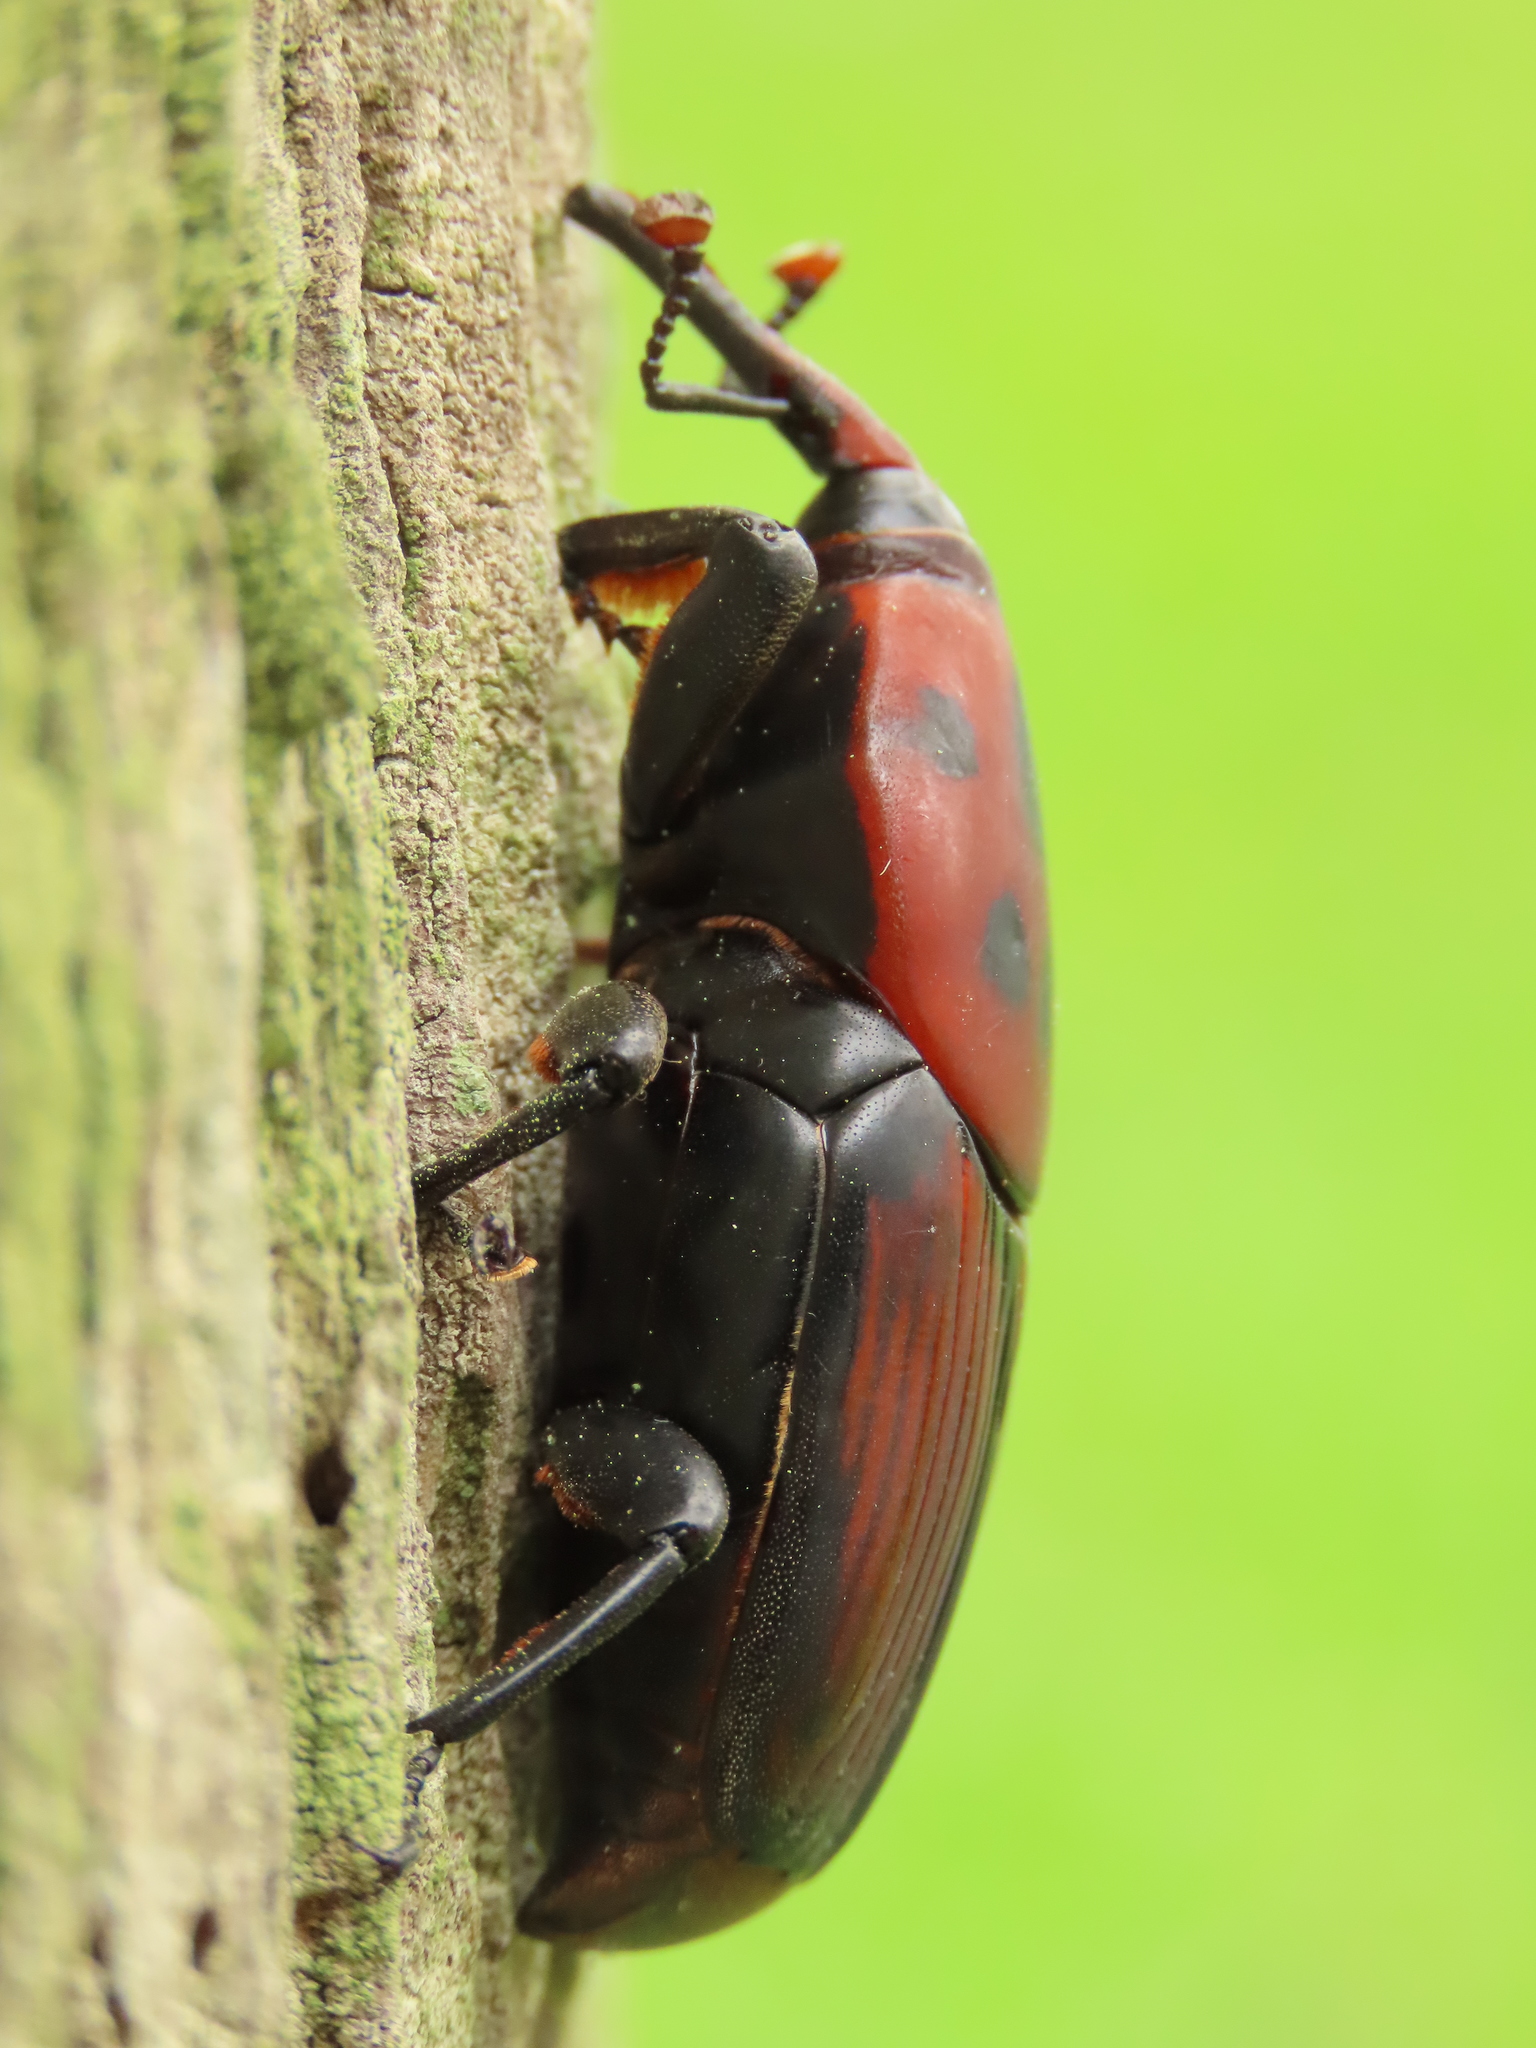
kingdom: Animalia
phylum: Arthropoda
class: Insecta
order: Coleoptera
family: Dryophthoridae
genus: Rhynchophorus
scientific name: Rhynchophorus ferrugineus
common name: Red palm weevil
